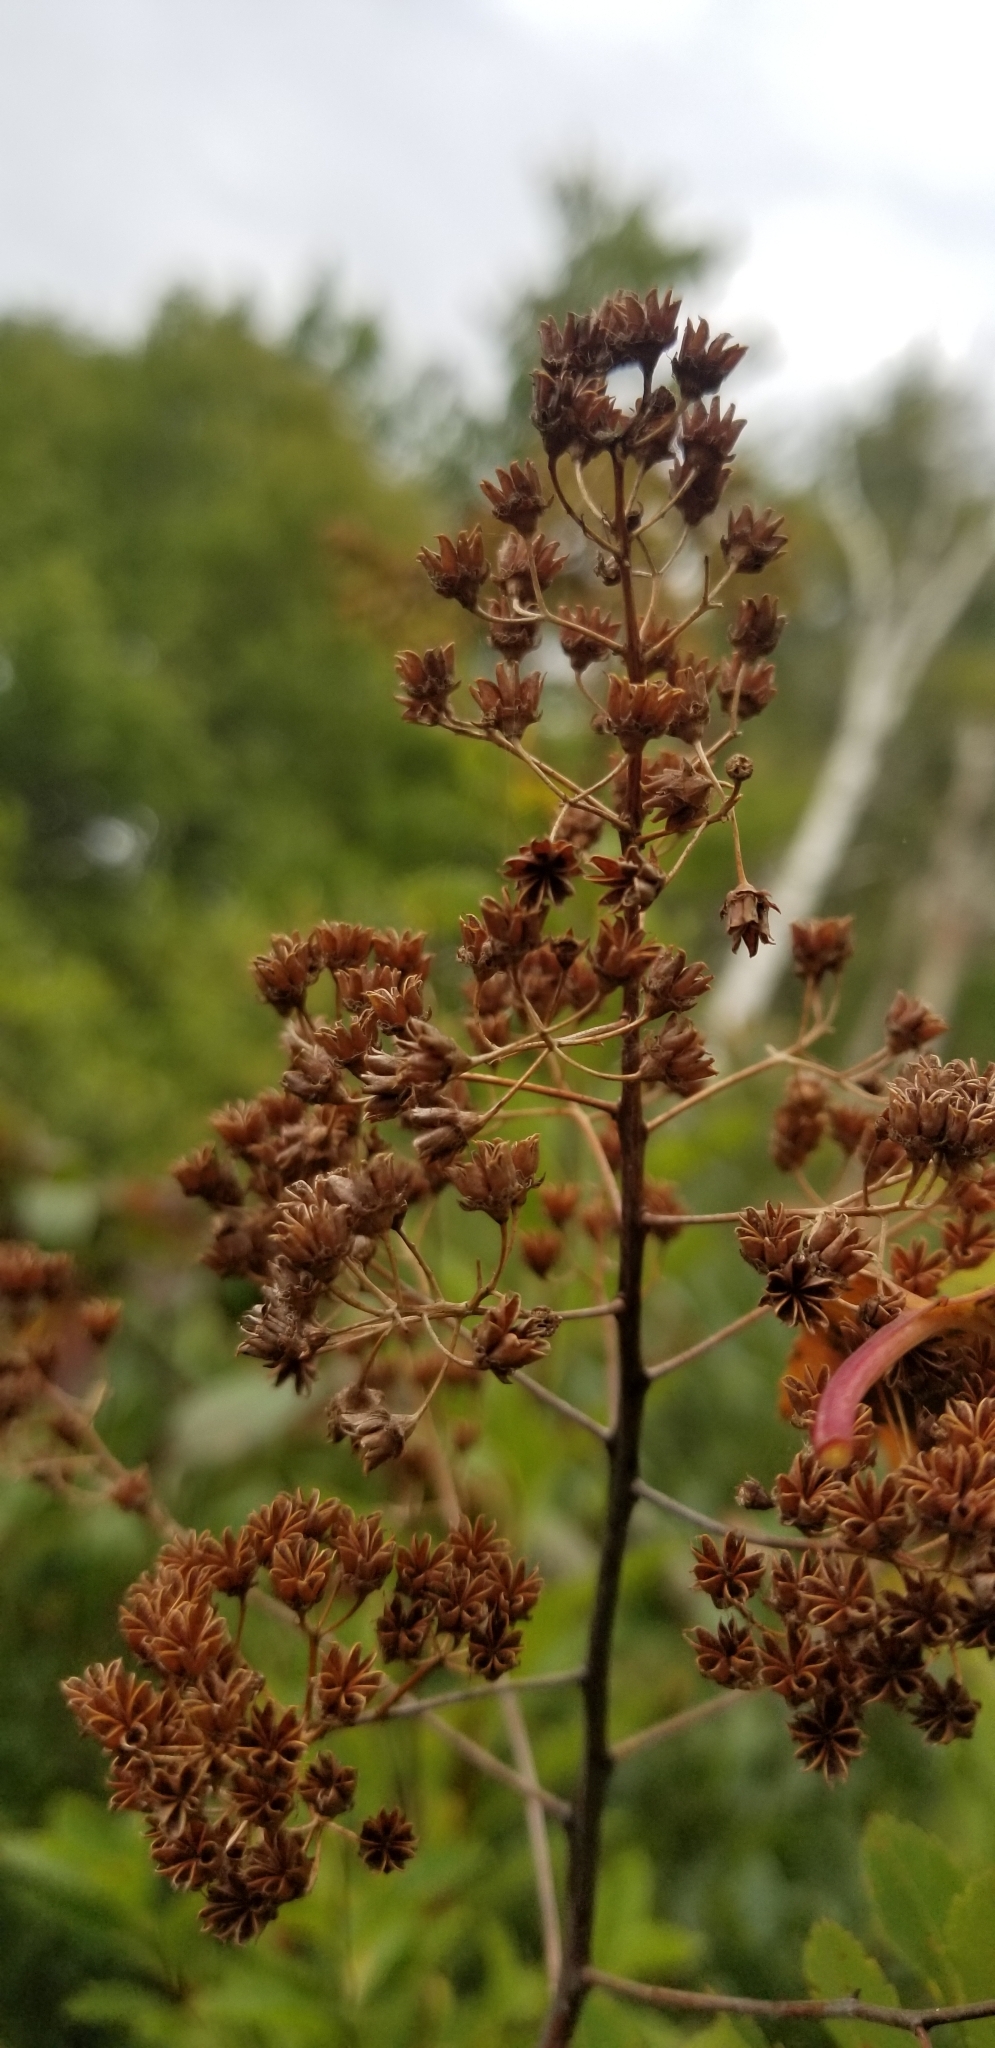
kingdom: Plantae
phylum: Tracheophyta
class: Magnoliopsida
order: Rosales
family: Rosaceae
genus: Spiraea
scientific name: Spiraea alba
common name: Pale bridewort
